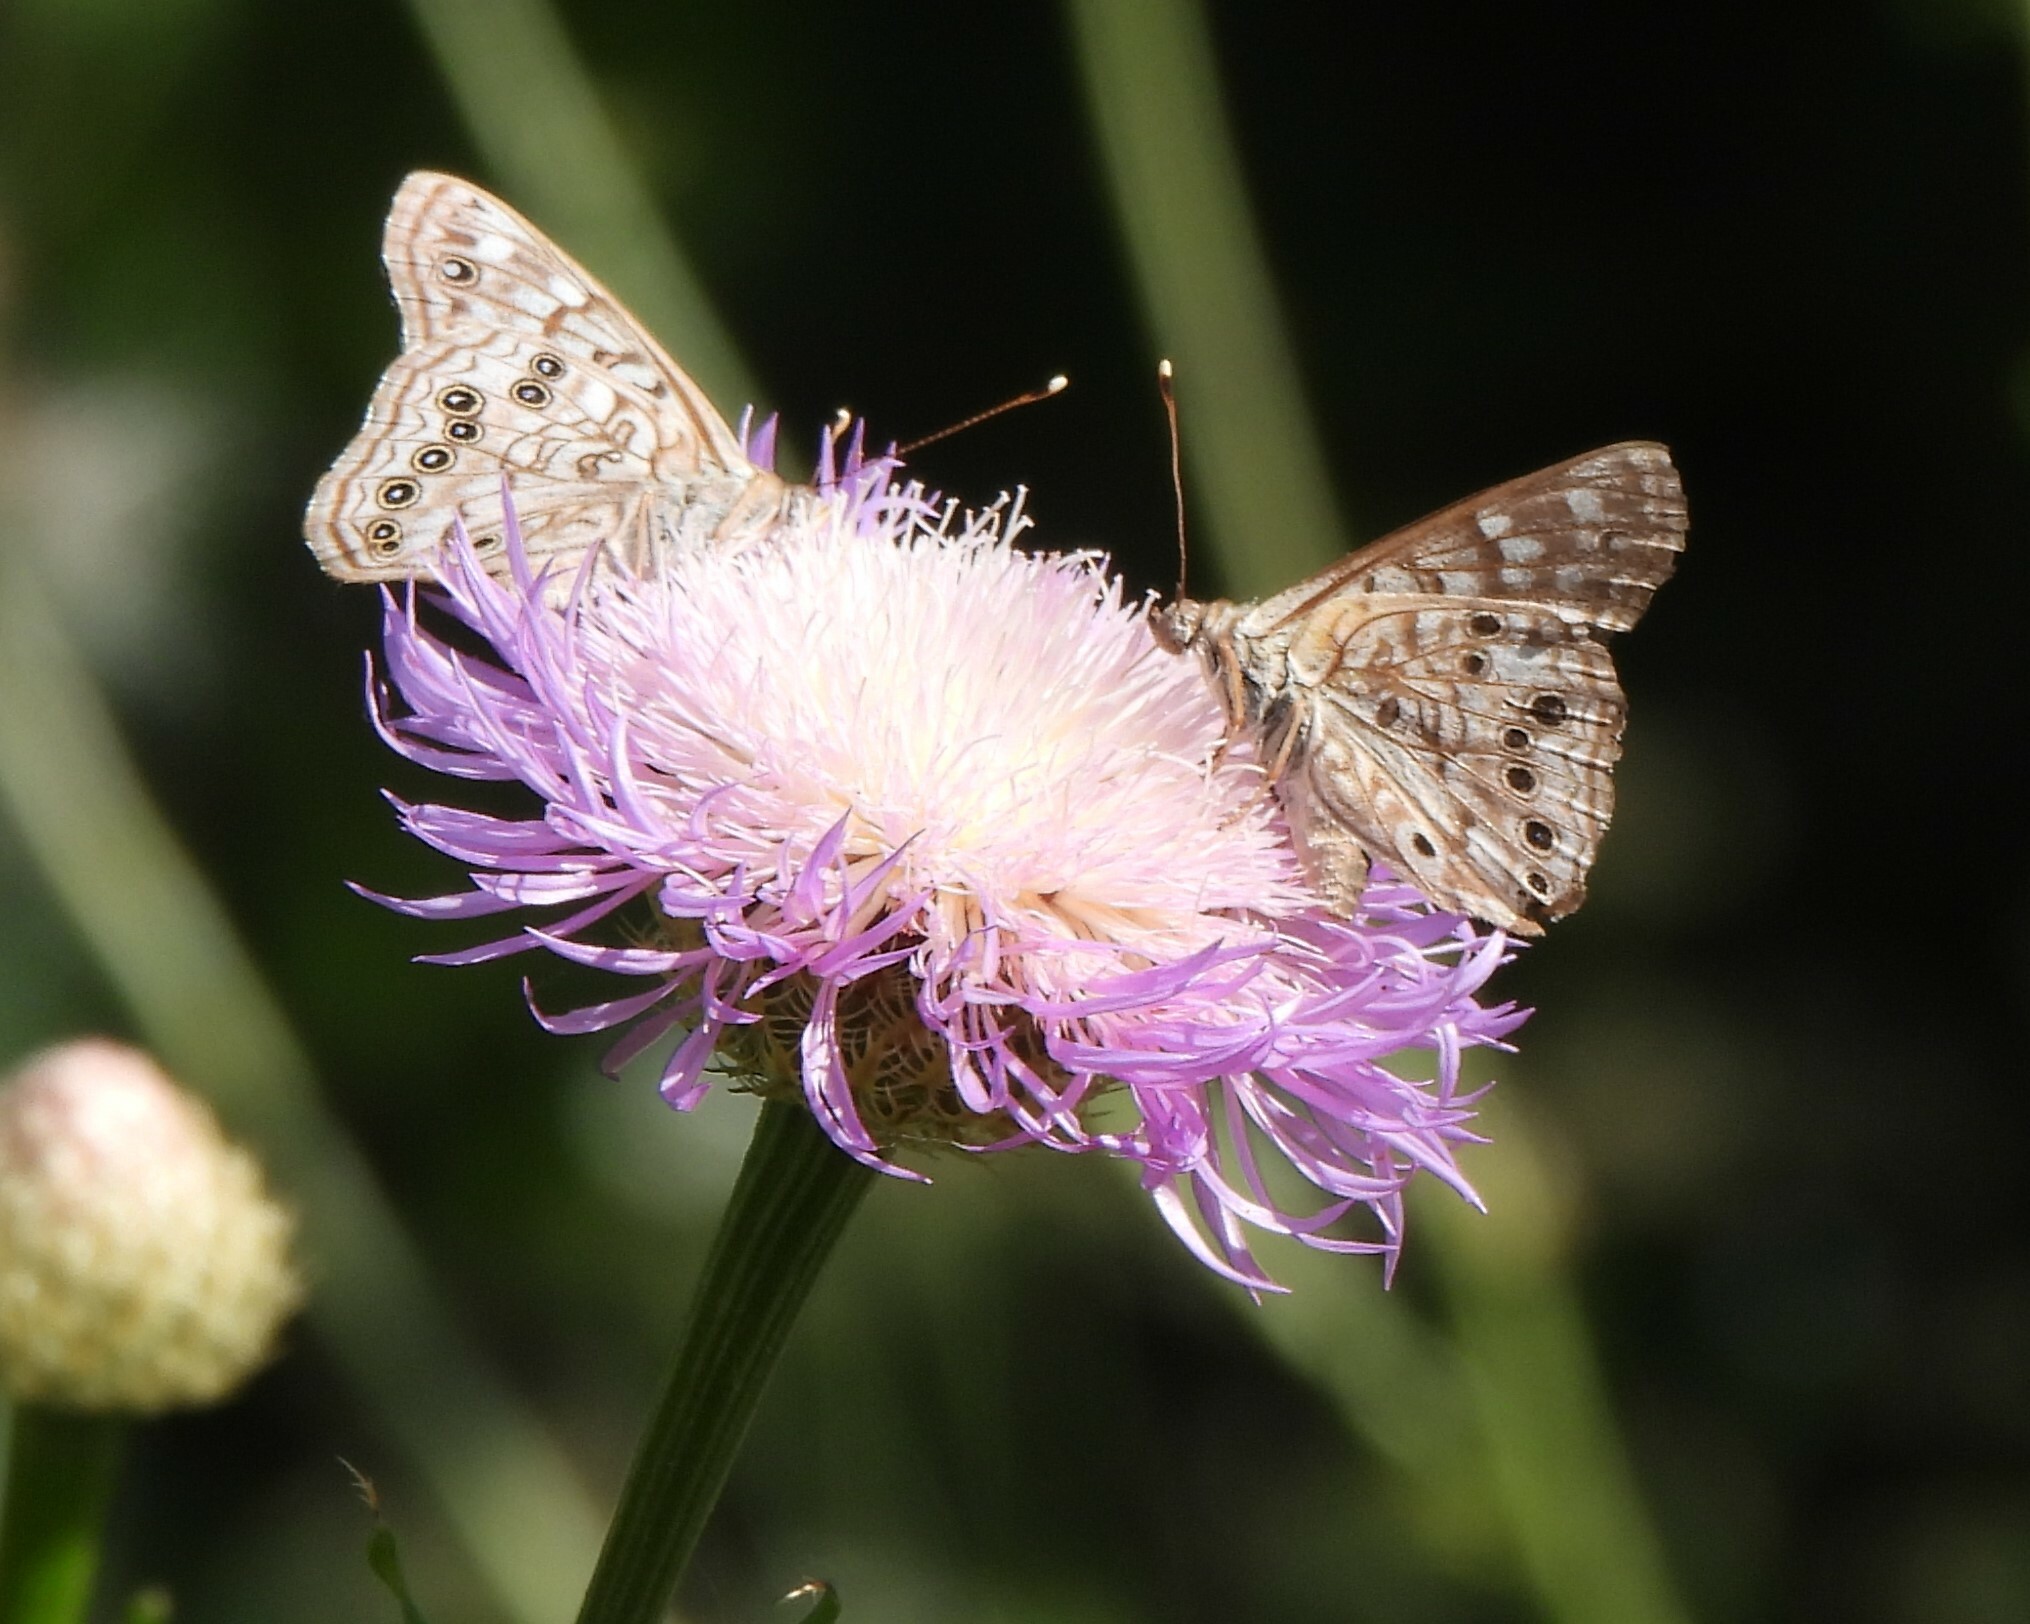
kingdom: Animalia
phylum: Arthropoda
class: Insecta
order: Lepidoptera
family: Nymphalidae
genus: Asterocampa
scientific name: Asterocampa celtis
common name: Hackberry emperor
